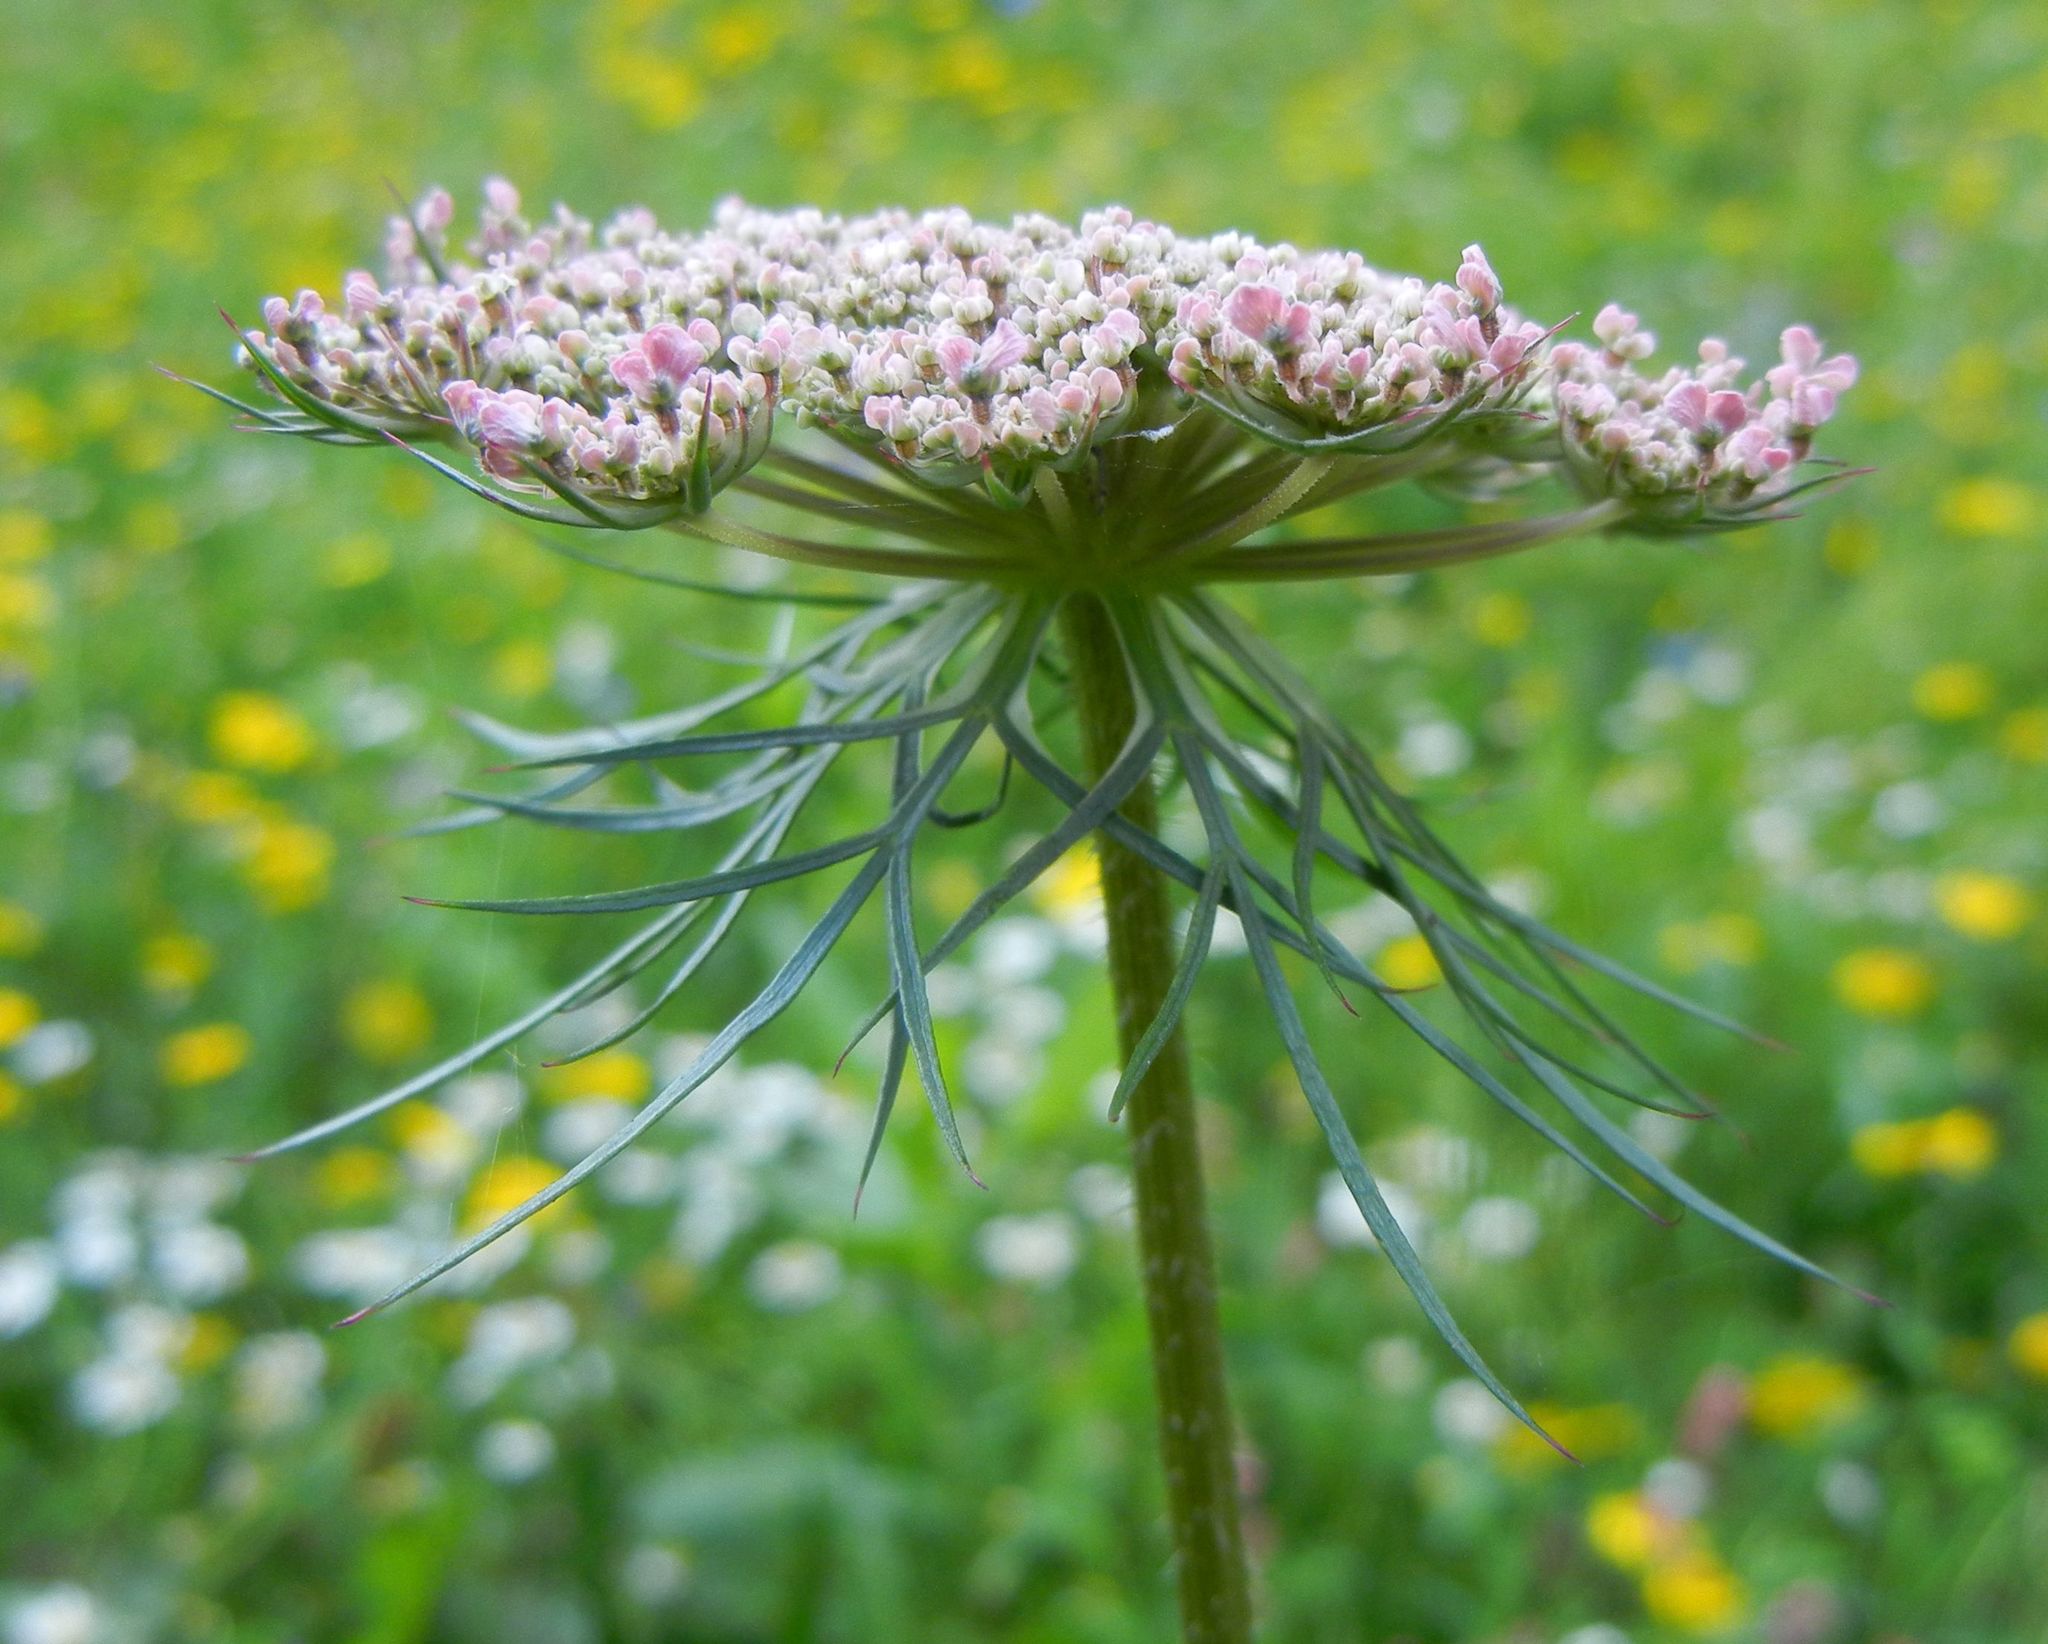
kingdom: Plantae
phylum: Tracheophyta
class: Magnoliopsida
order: Apiales
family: Apiaceae
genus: Daucus
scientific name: Daucus carota
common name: Wild carrot
